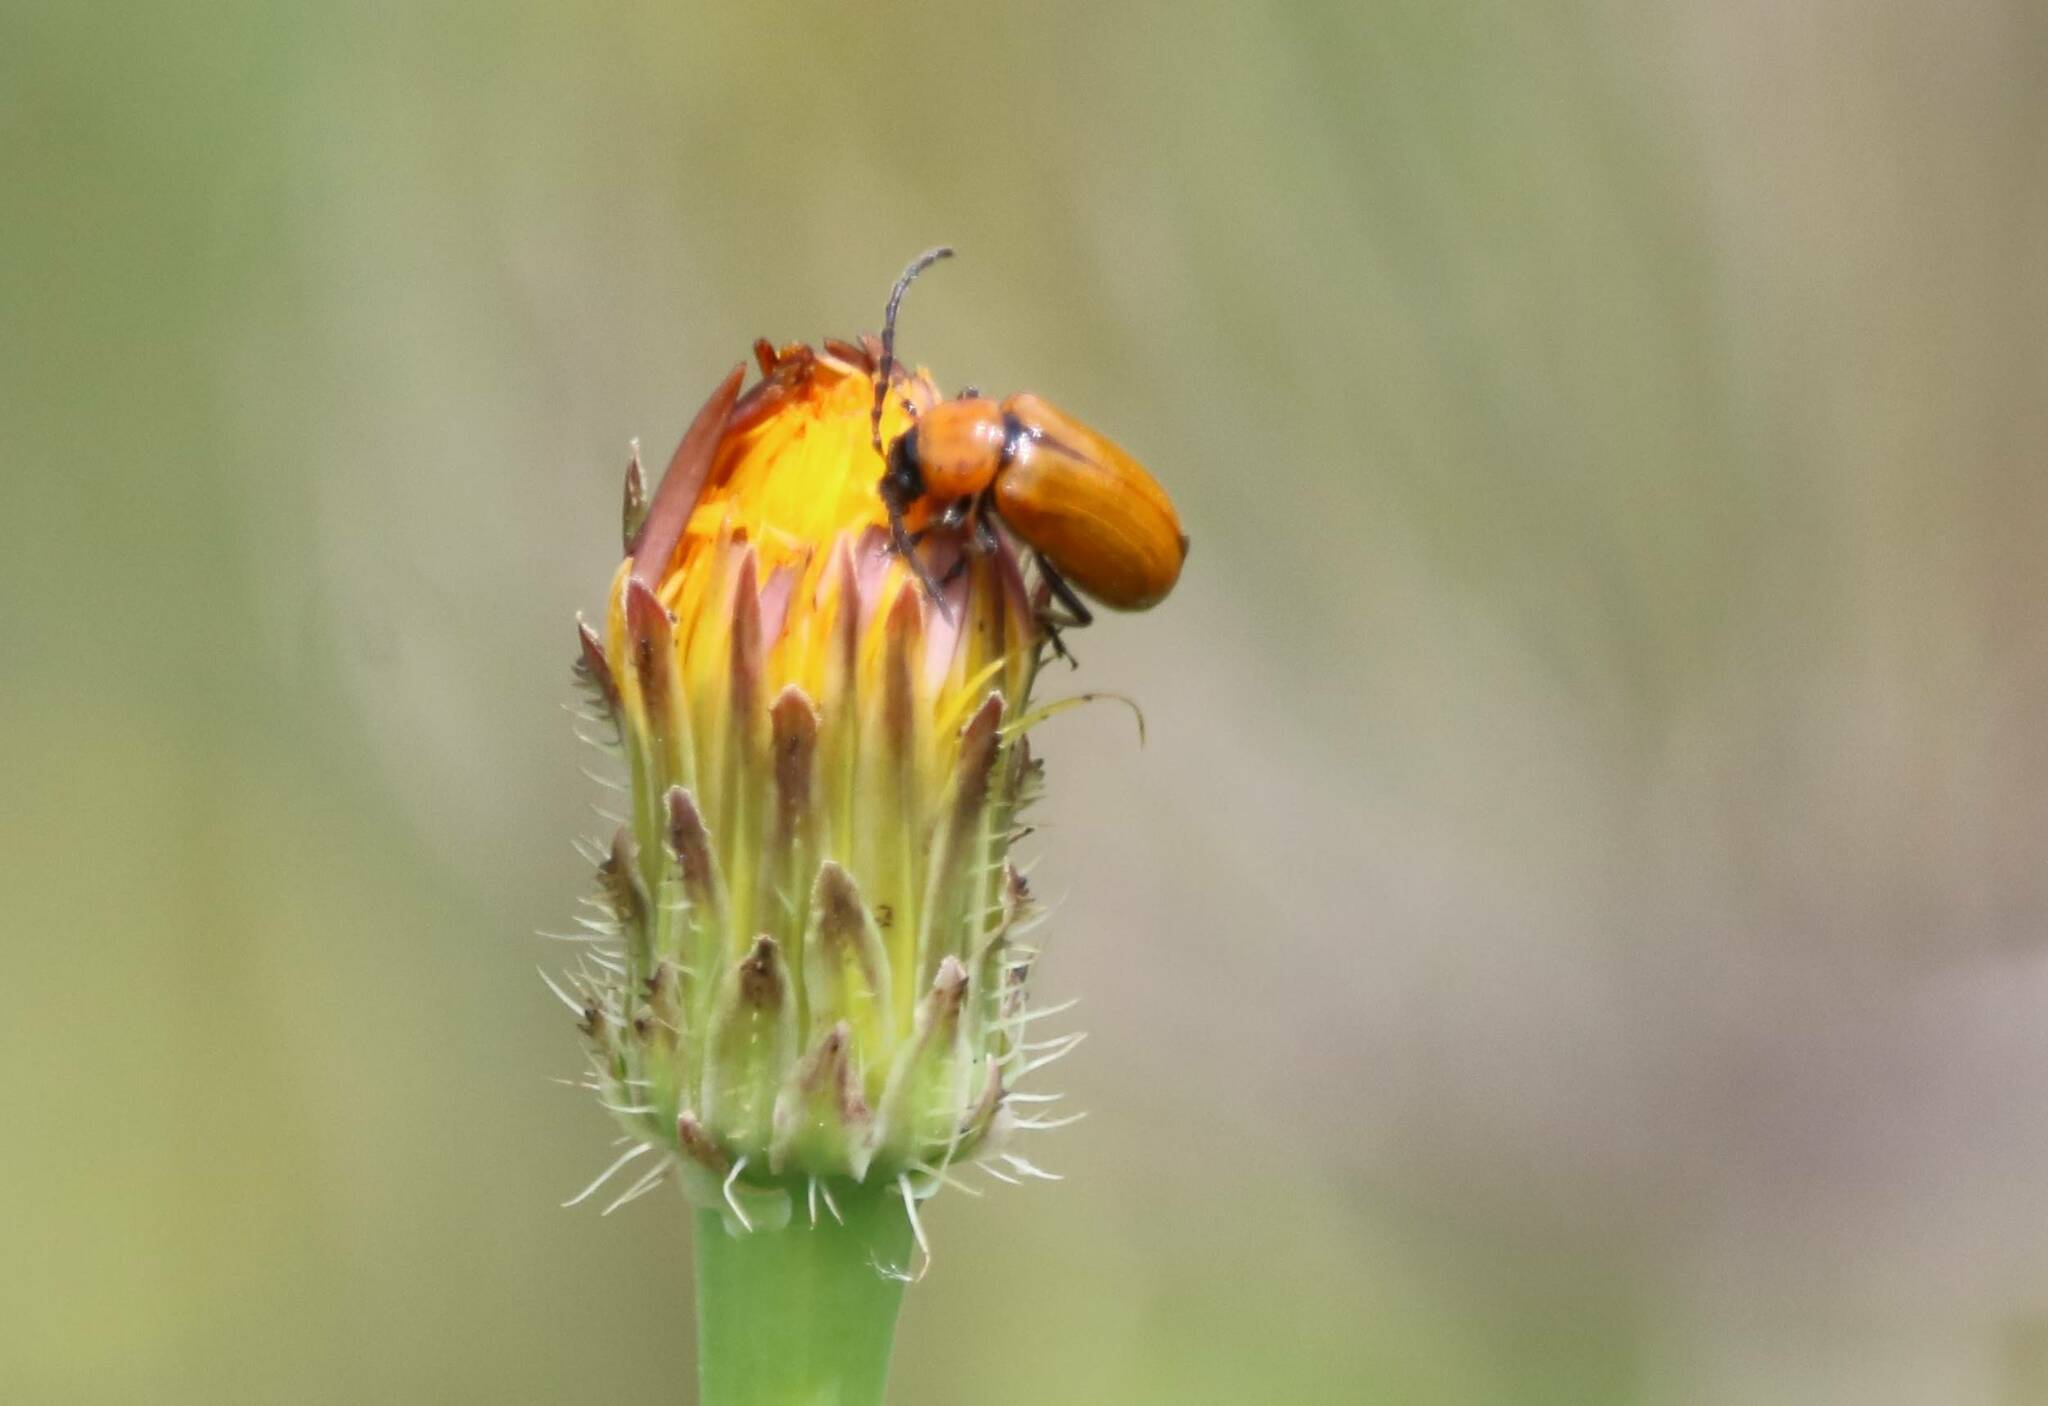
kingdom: Animalia
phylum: Arthropoda
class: Insecta
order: Coleoptera
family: Chrysomelidae
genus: Exosoma
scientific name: Exosoma lusitanicum
